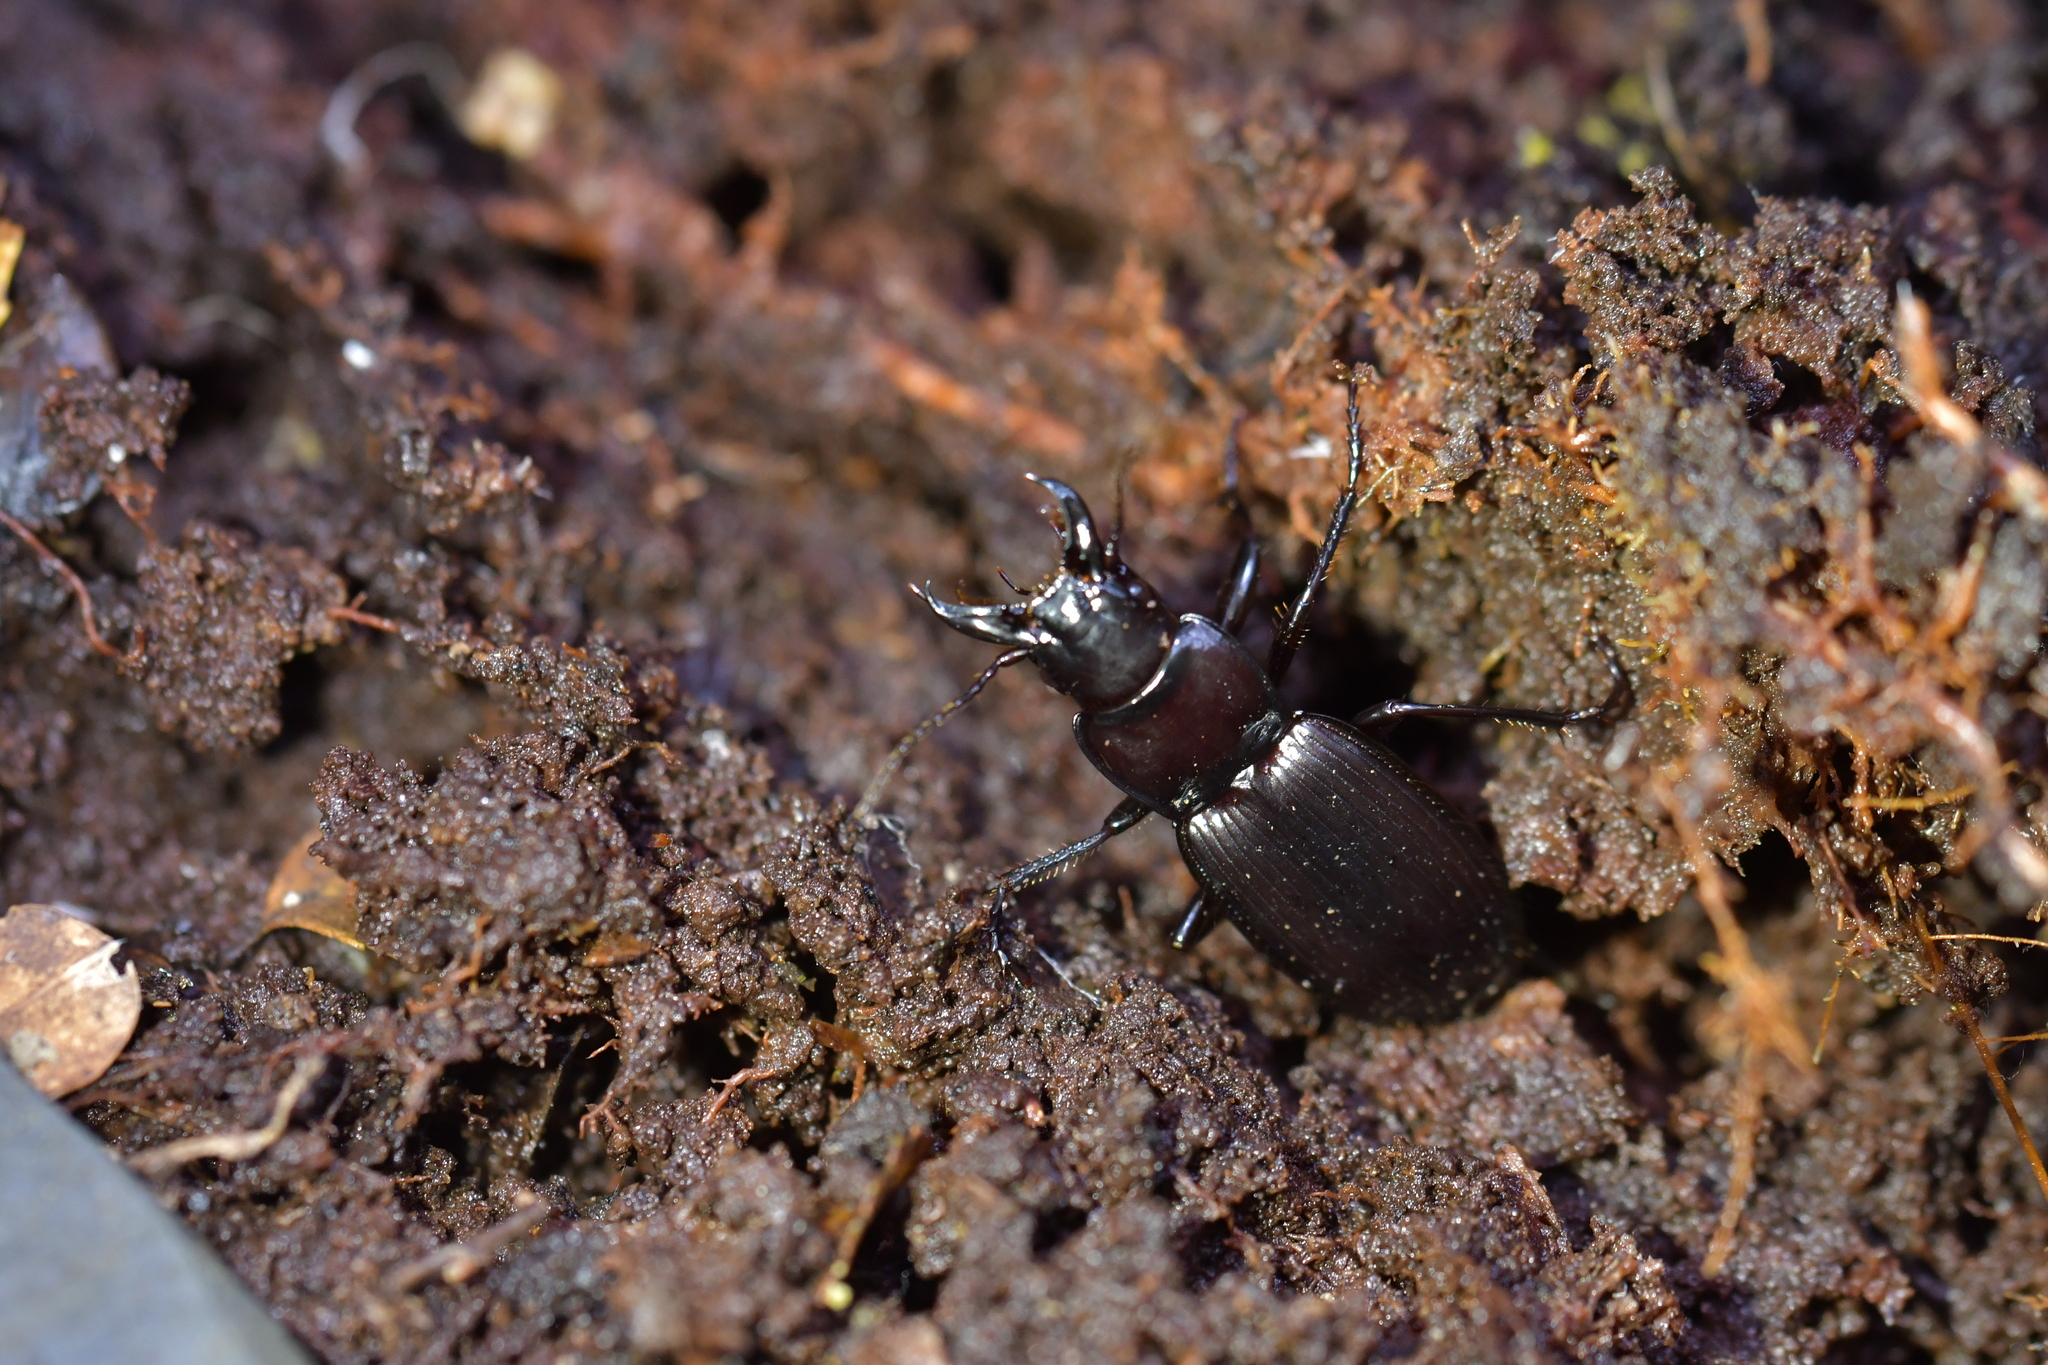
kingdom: Animalia
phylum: Arthropoda
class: Insecta
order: Coleoptera
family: Carabidae
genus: Plocamostethus
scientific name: Plocamostethus planiusculus
